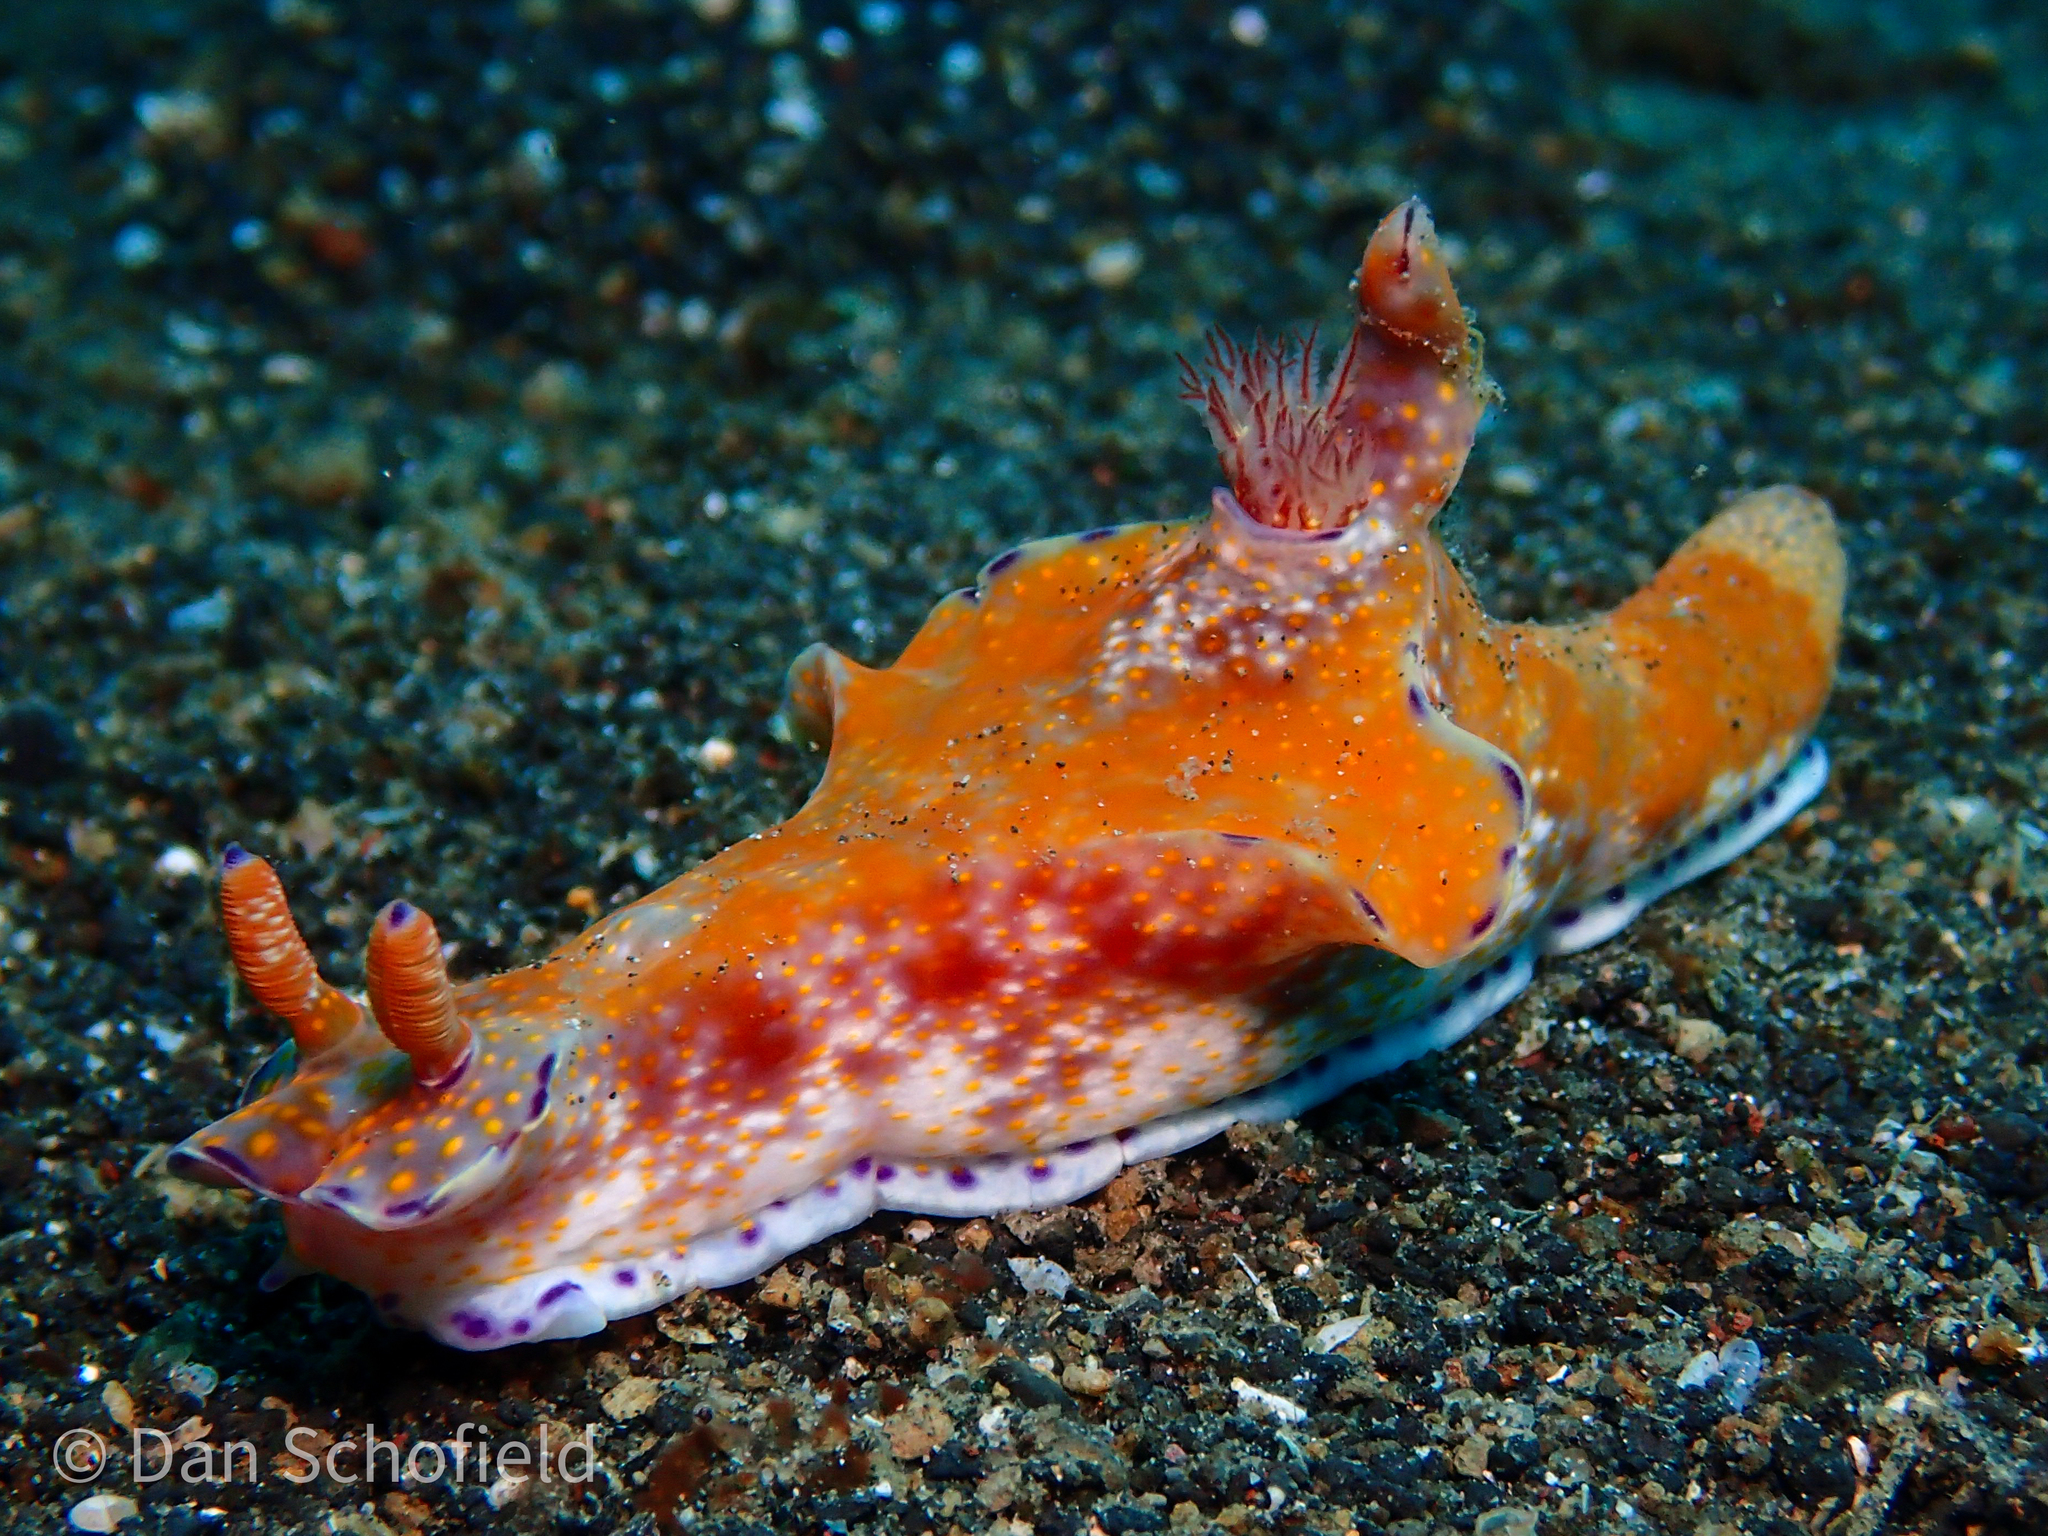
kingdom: Animalia
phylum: Mollusca
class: Gastropoda
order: Nudibranchia
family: Chromodorididae
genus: Ceratosoma
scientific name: Ceratosoma gracillimum
